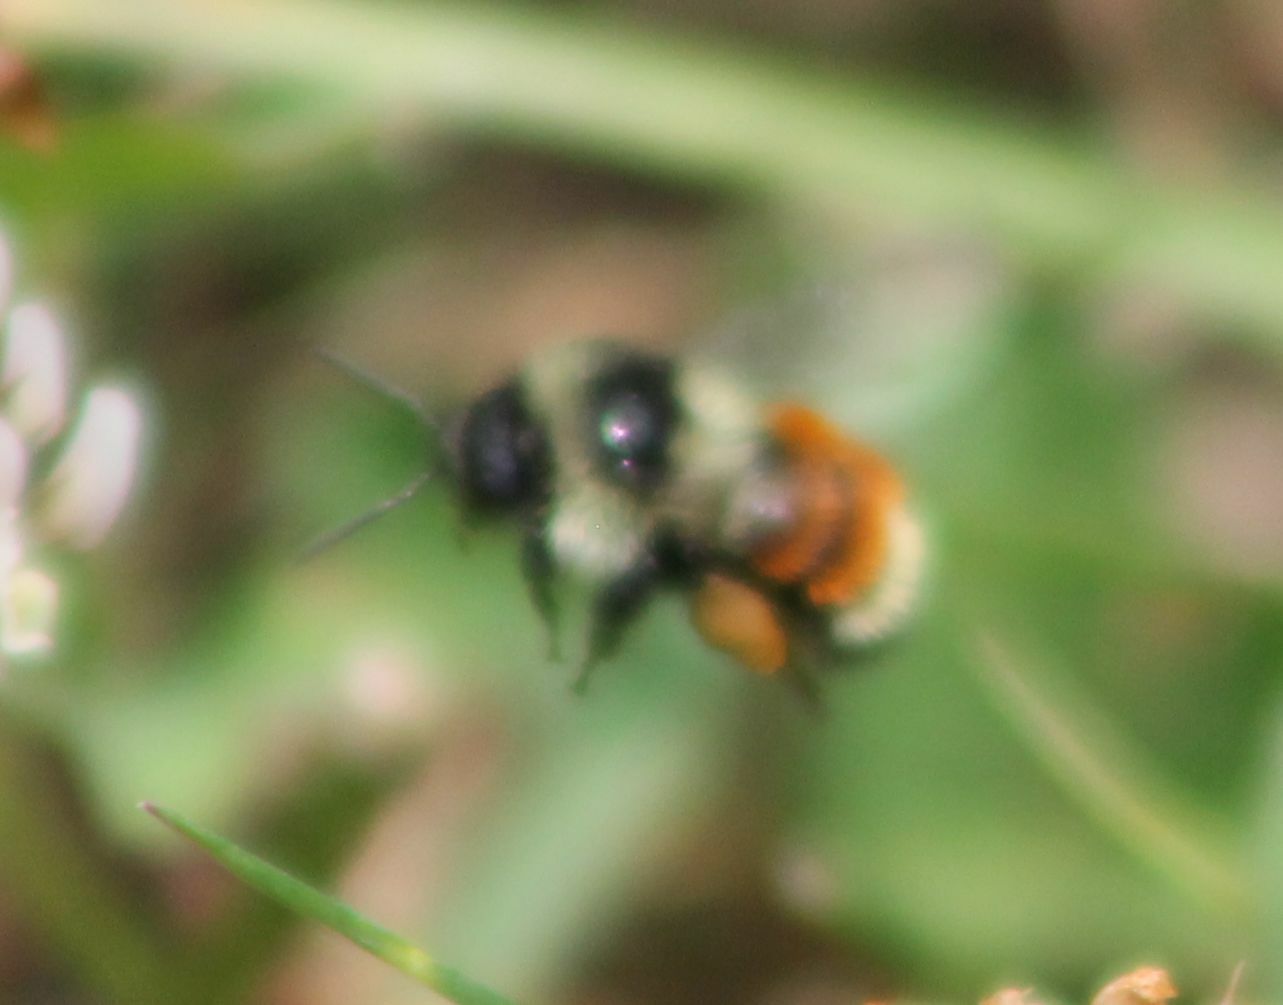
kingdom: Animalia
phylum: Arthropoda
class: Insecta
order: Hymenoptera
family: Apidae
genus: Bombus
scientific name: Bombus ternarius
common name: Tri-colored bumble bee
